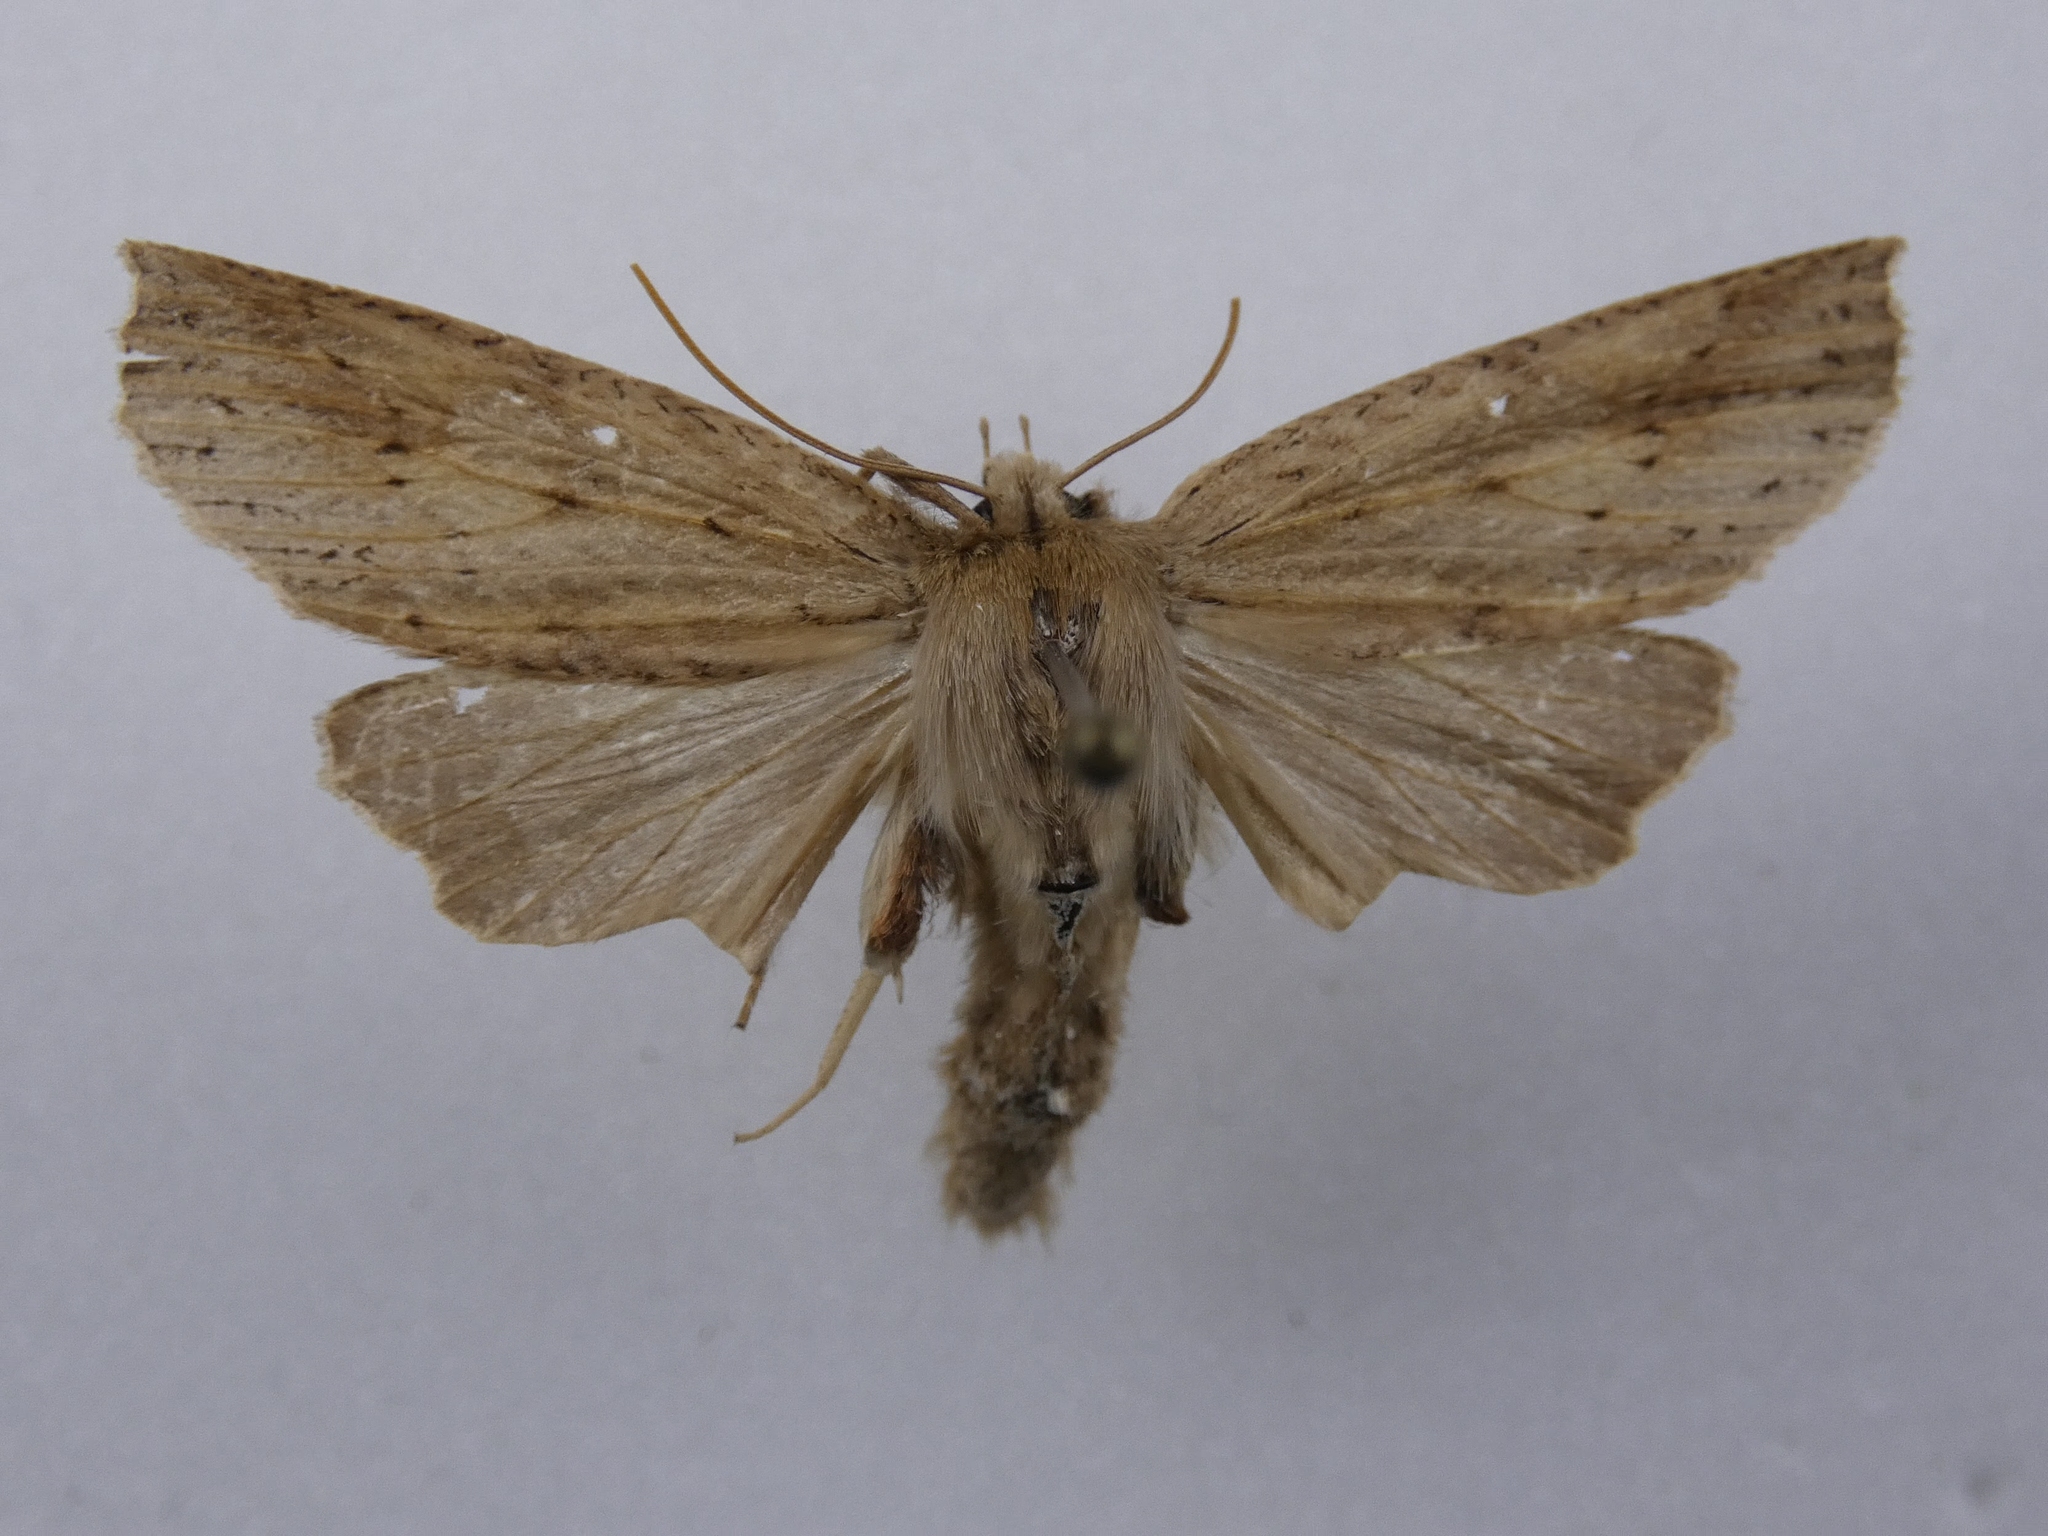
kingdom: Animalia
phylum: Arthropoda
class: Insecta
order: Lepidoptera
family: Geometridae
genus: Declana
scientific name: Declana leptomera
